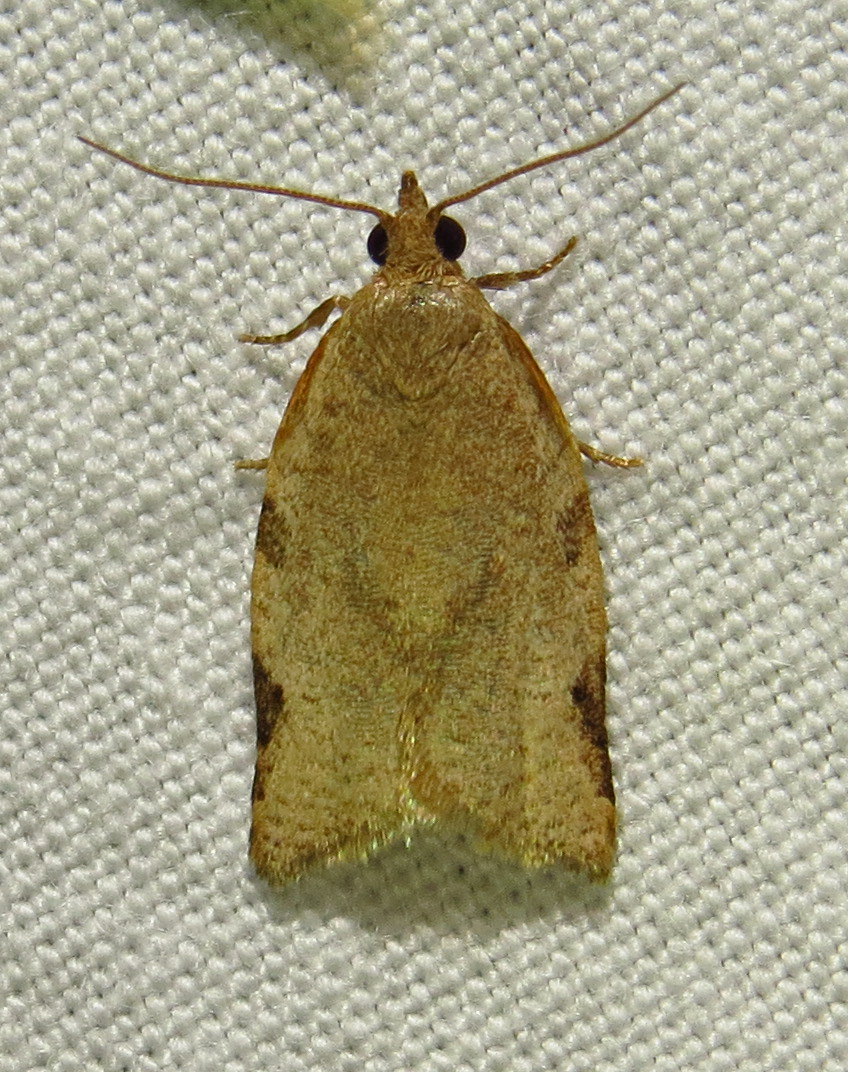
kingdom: Animalia
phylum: Arthropoda
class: Insecta
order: Lepidoptera
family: Tortricidae
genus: Clepsis
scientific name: Clepsis virescana
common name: Greenish apple moth
